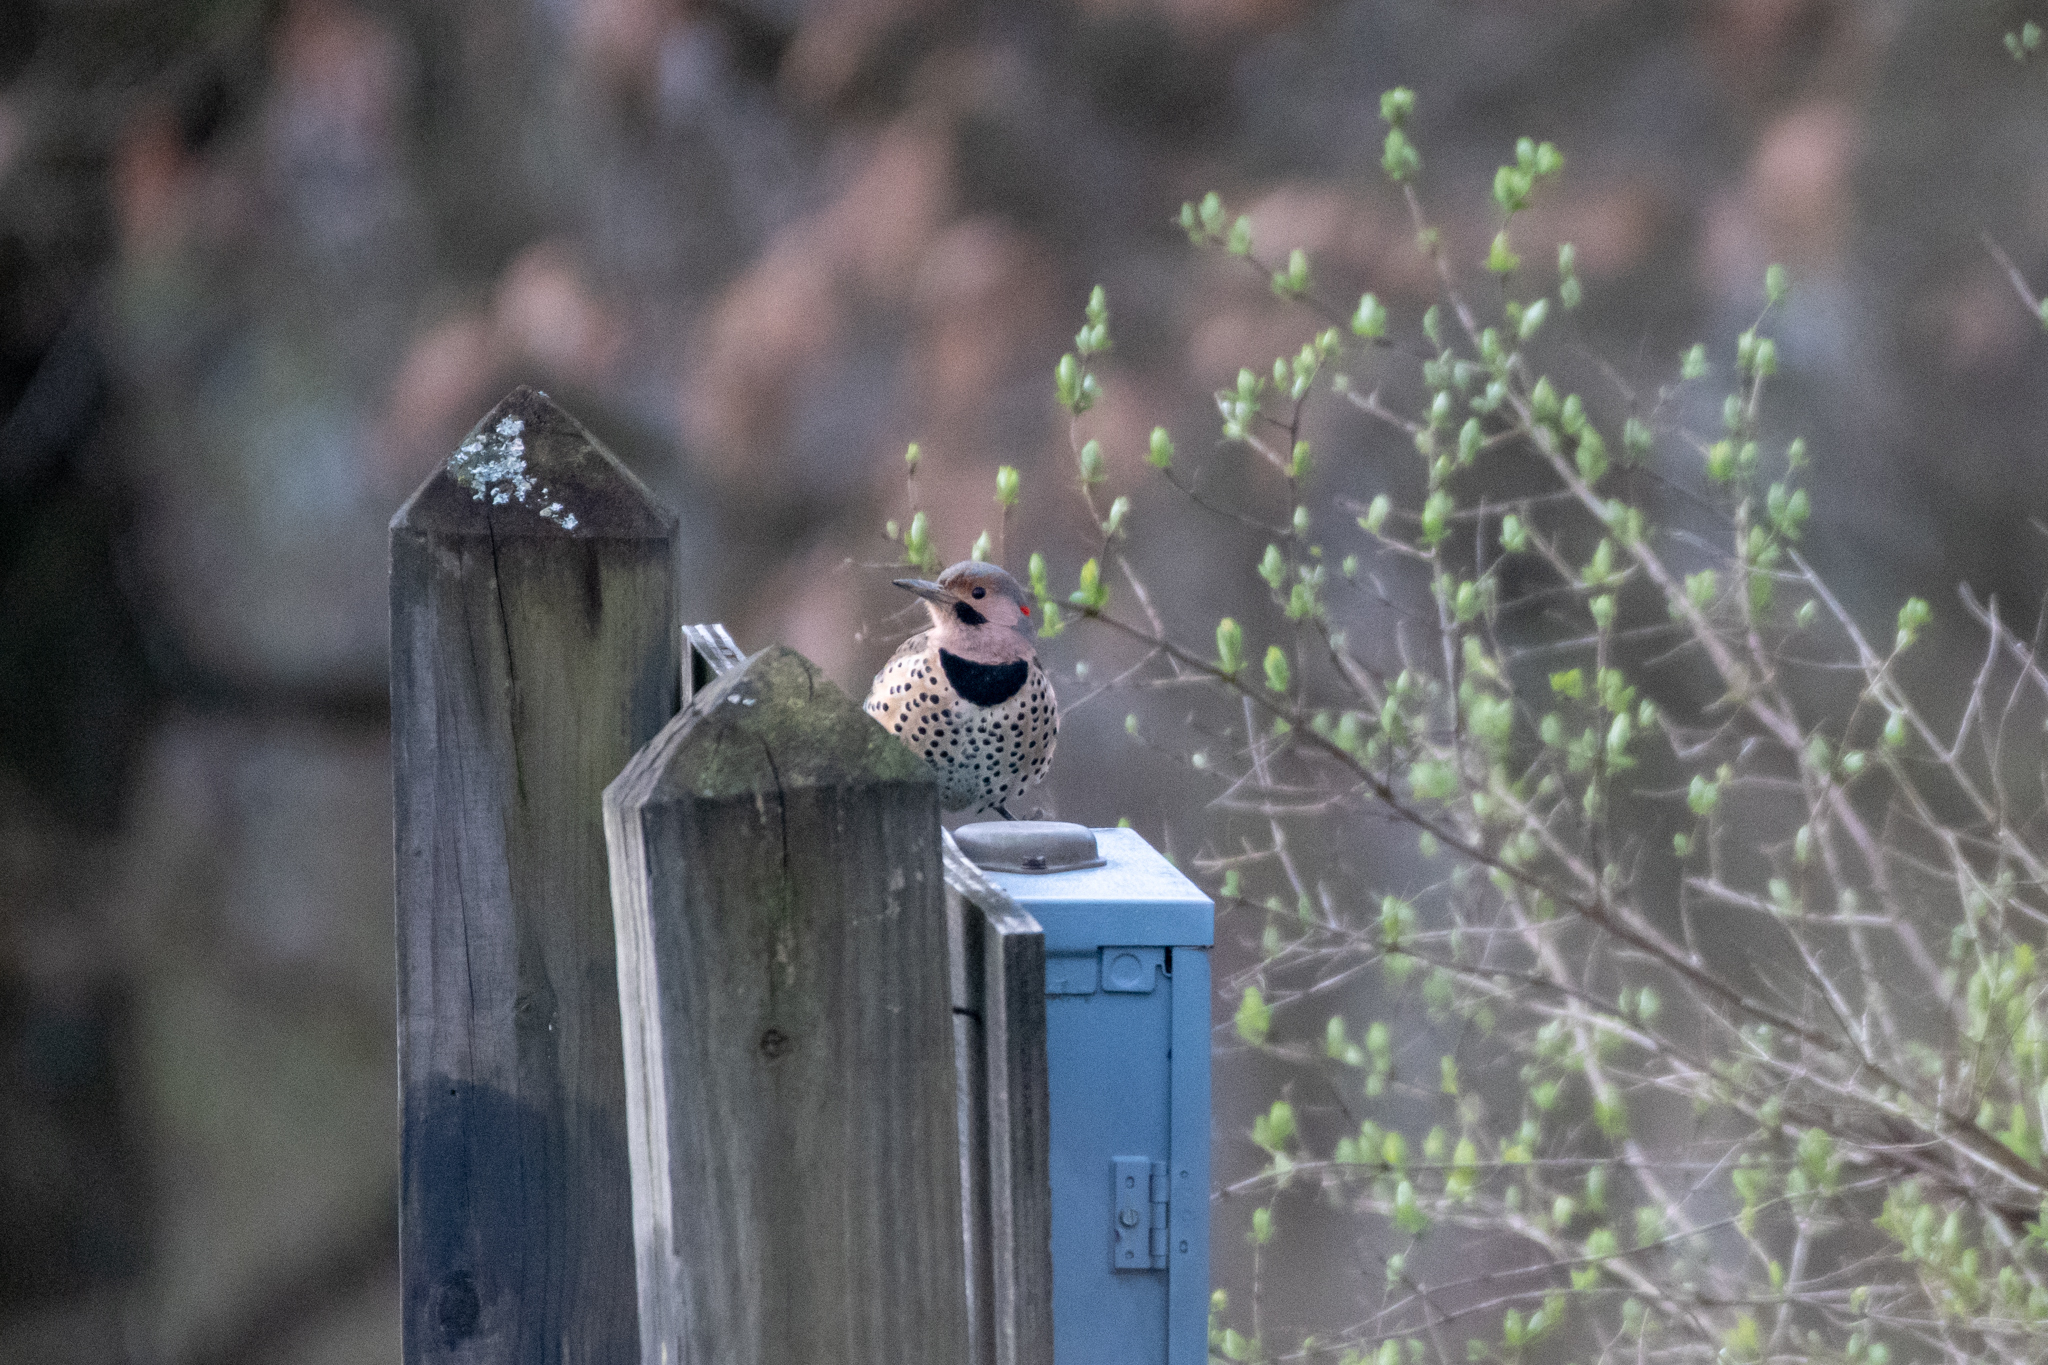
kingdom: Animalia
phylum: Chordata
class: Aves
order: Piciformes
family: Picidae
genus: Colaptes
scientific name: Colaptes auratus
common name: Northern flicker
